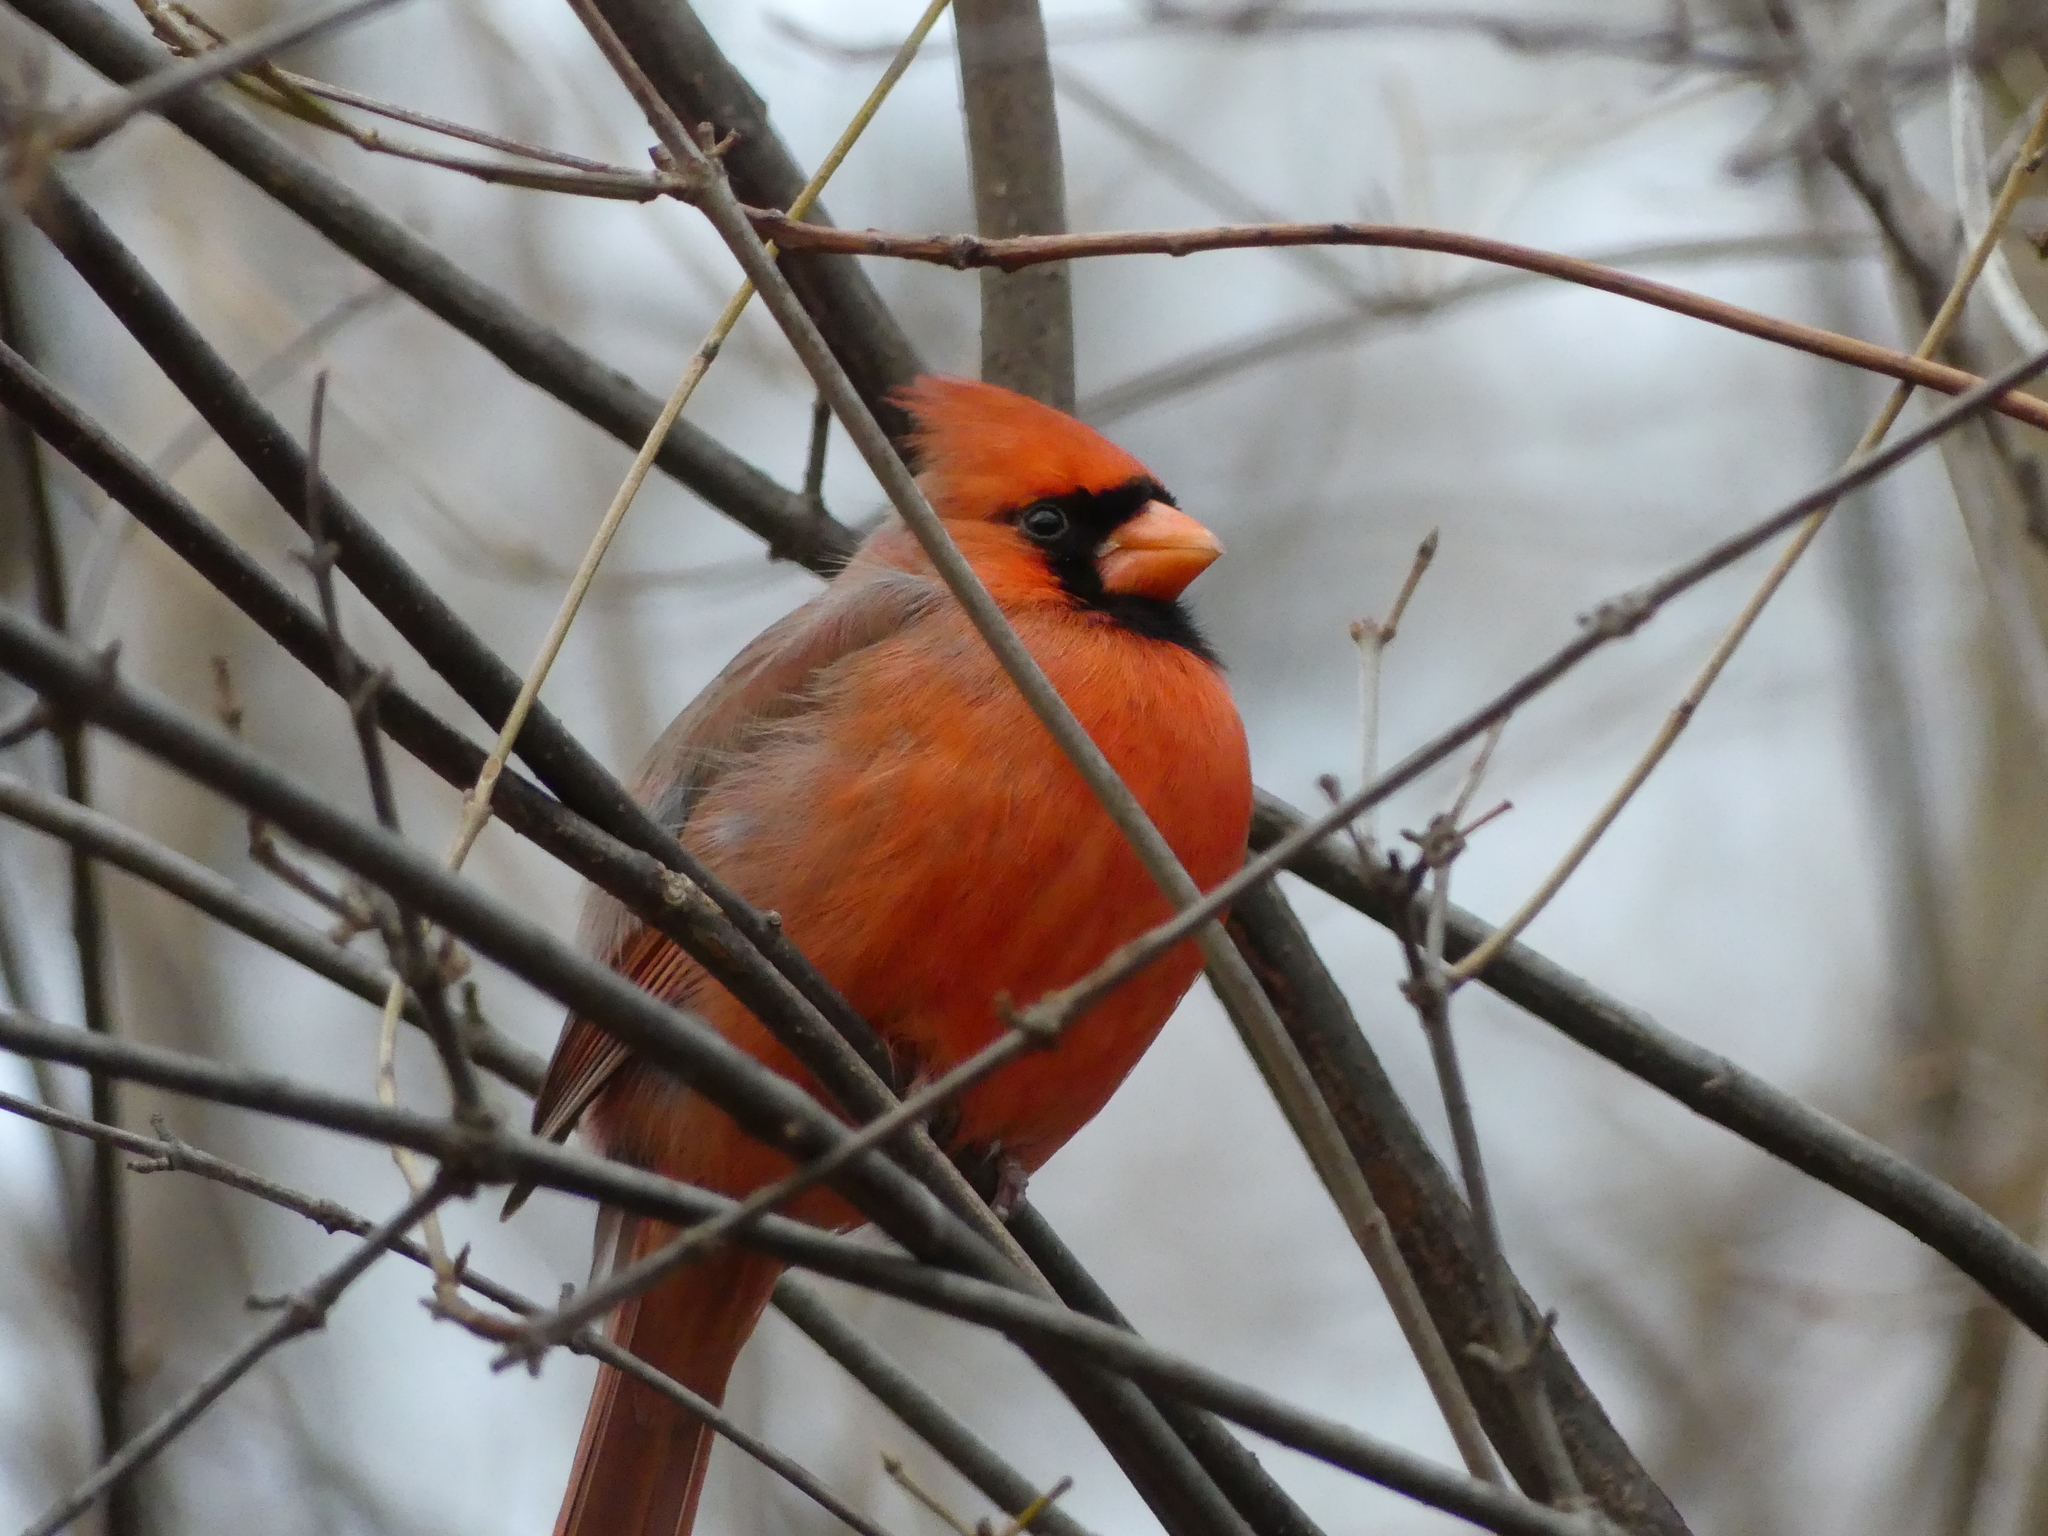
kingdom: Animalia
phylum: Chordata
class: Aves
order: Passeriformes
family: Cardinalidae
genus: Cardinalis
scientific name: Cardinalis cardinalis
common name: Northern cardinal
